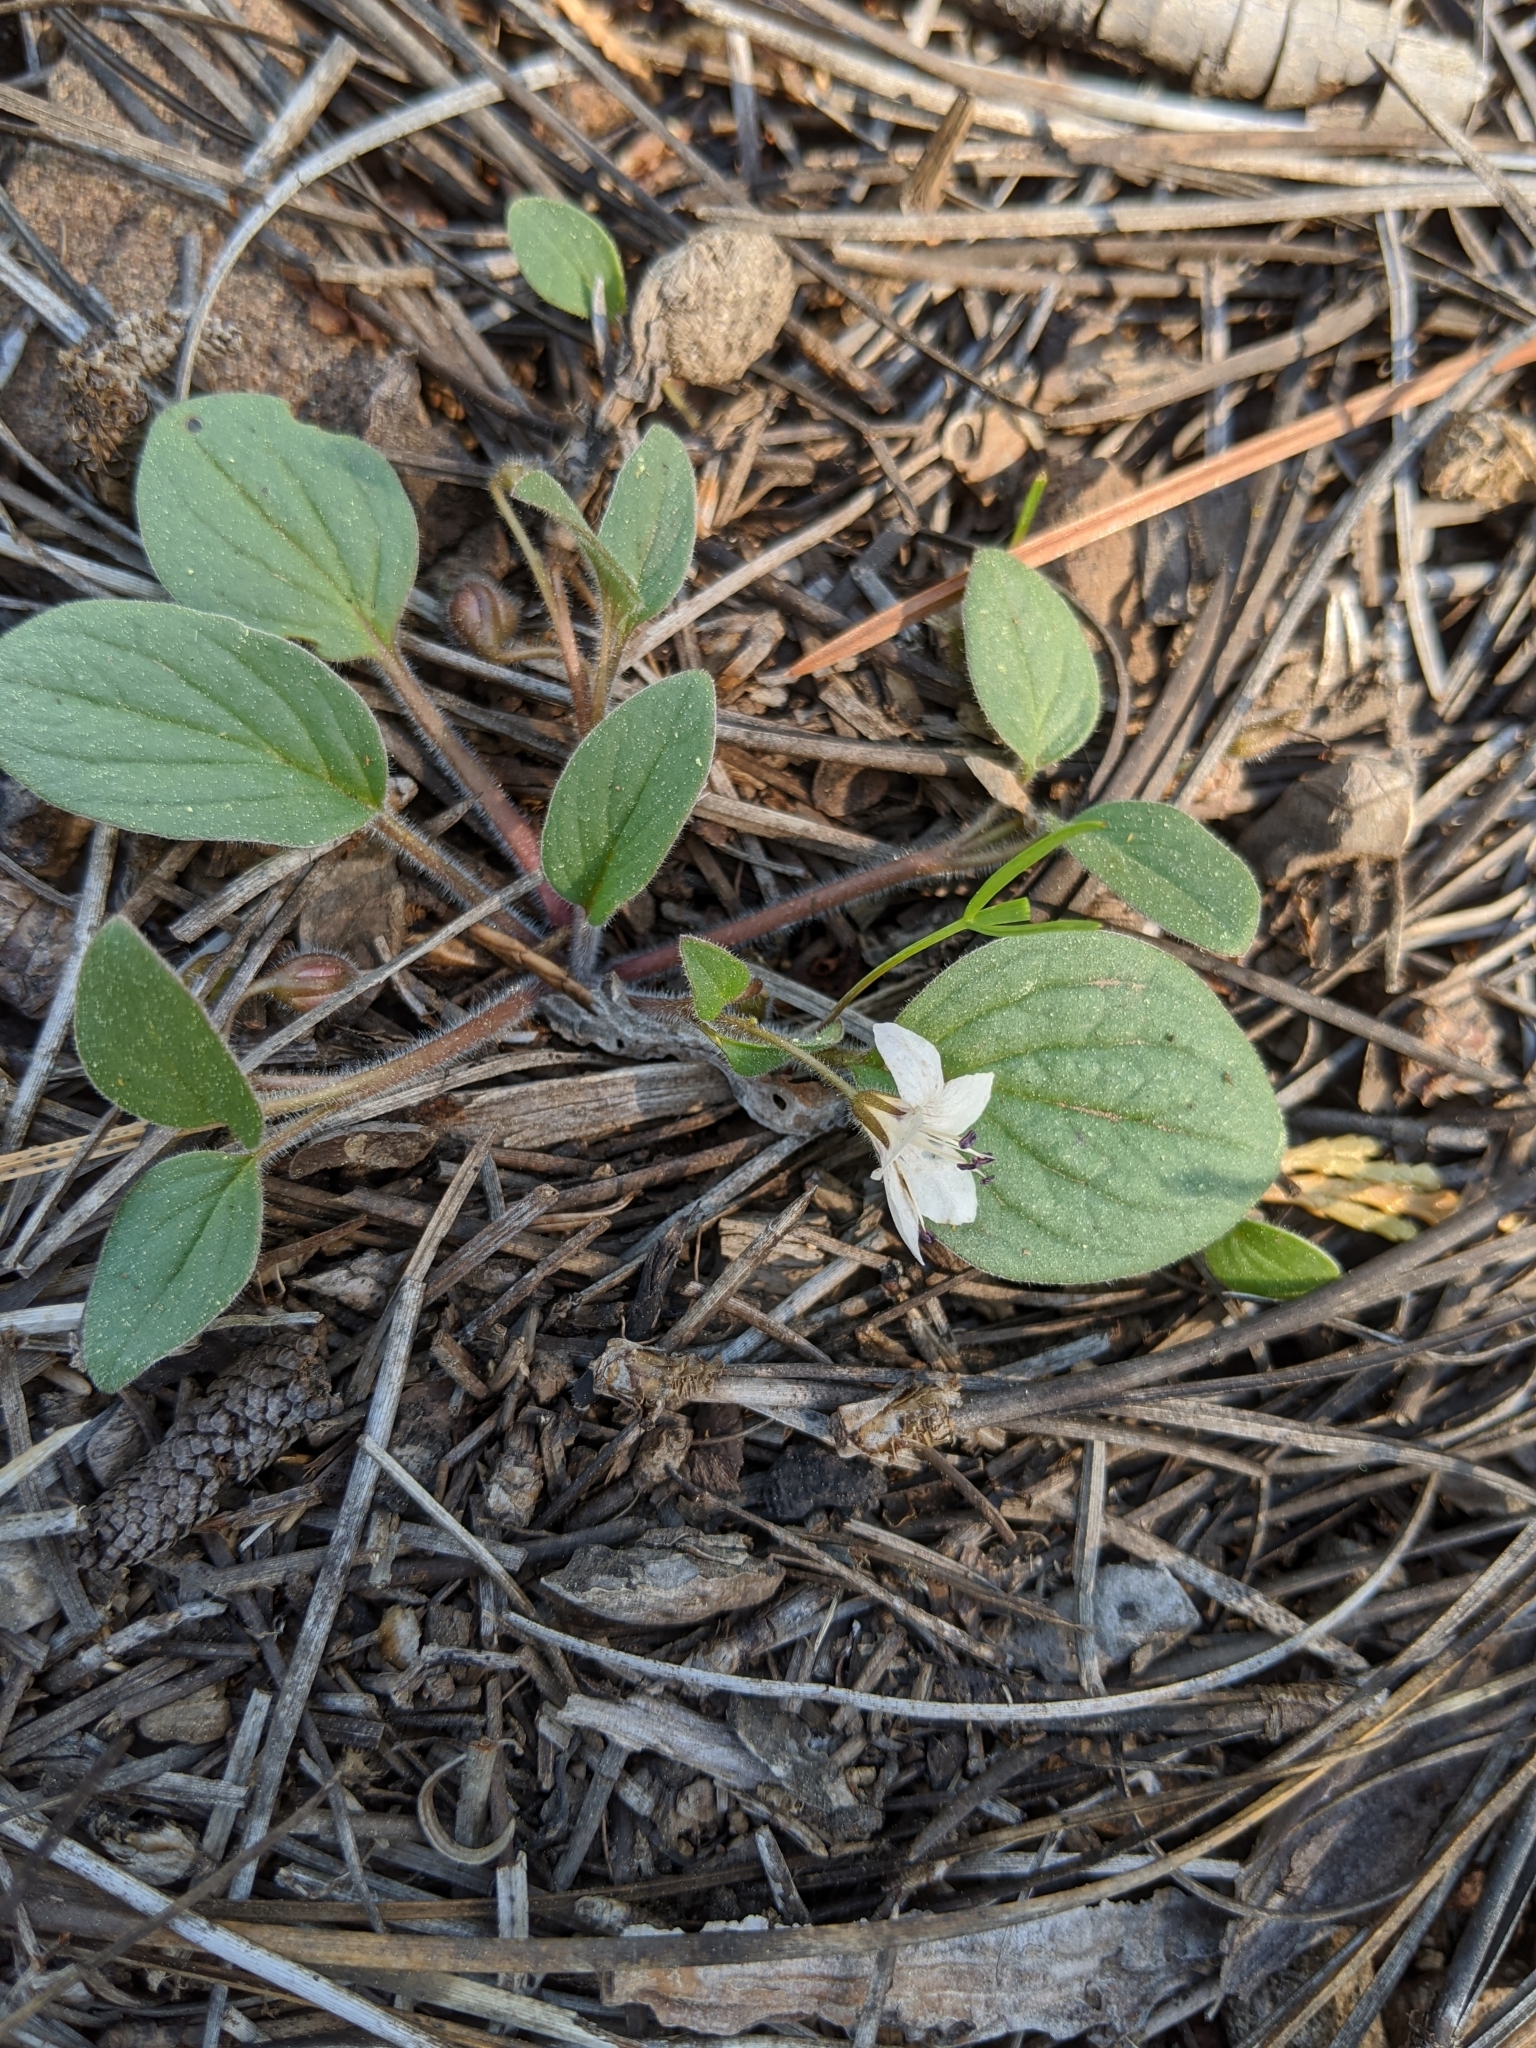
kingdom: Plantae
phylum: Tracheophyta
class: Magnoliopsida
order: Boraginales
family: Hydrophyllaceae
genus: Howellanthus
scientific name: Howellanthus dalesianus
